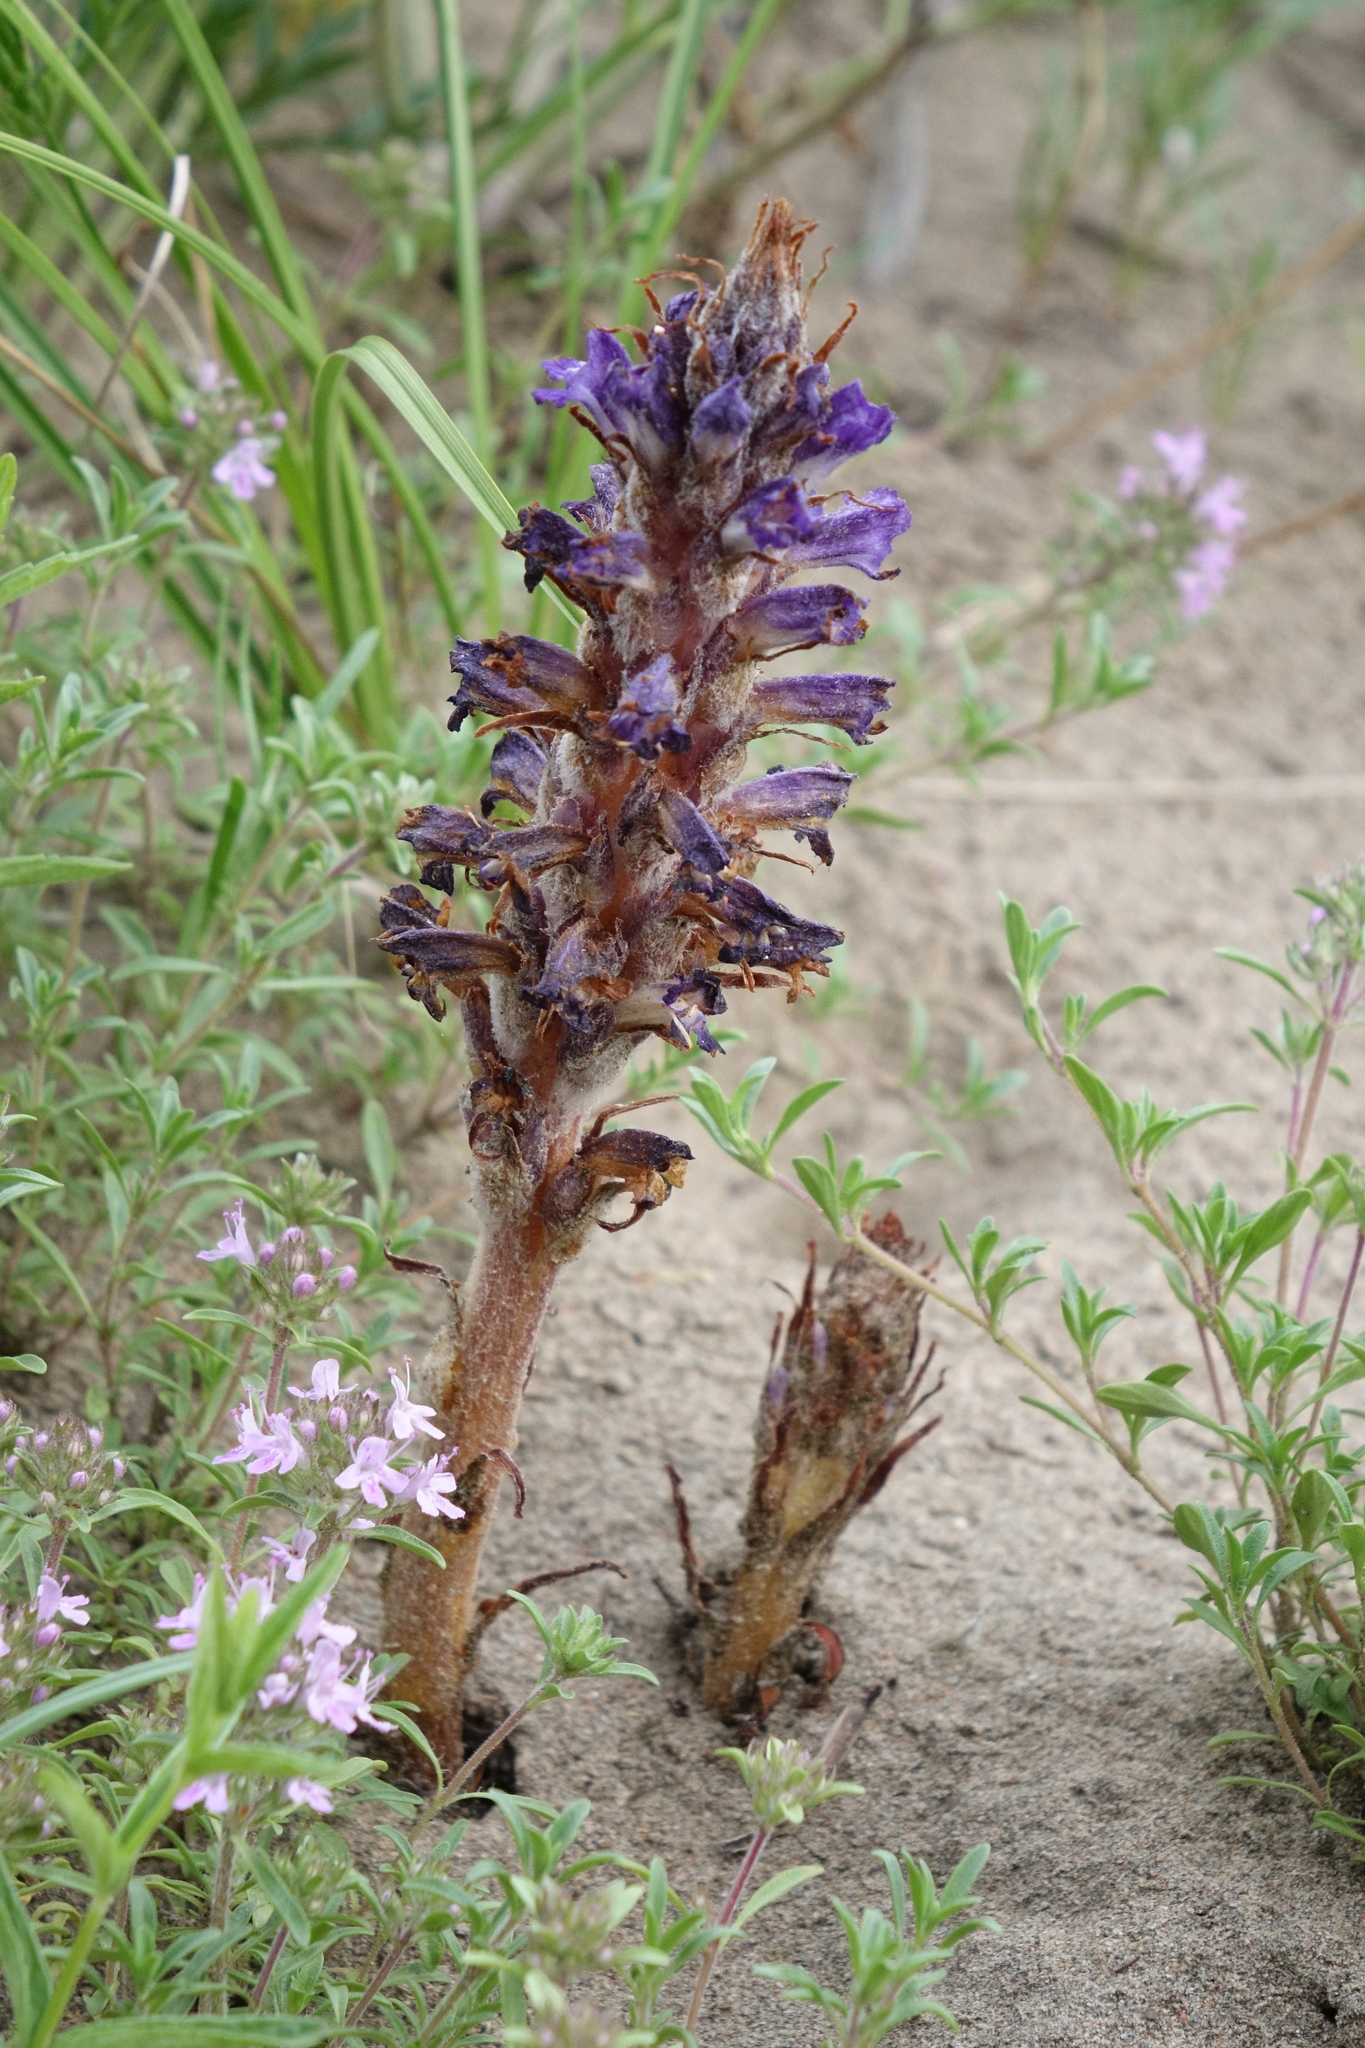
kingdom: Plantae
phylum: Tracheophyta
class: Magnoliopsida
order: Lamiales
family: Orobanchaceae
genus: Orobanche
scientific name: Orobanche coerulescens
